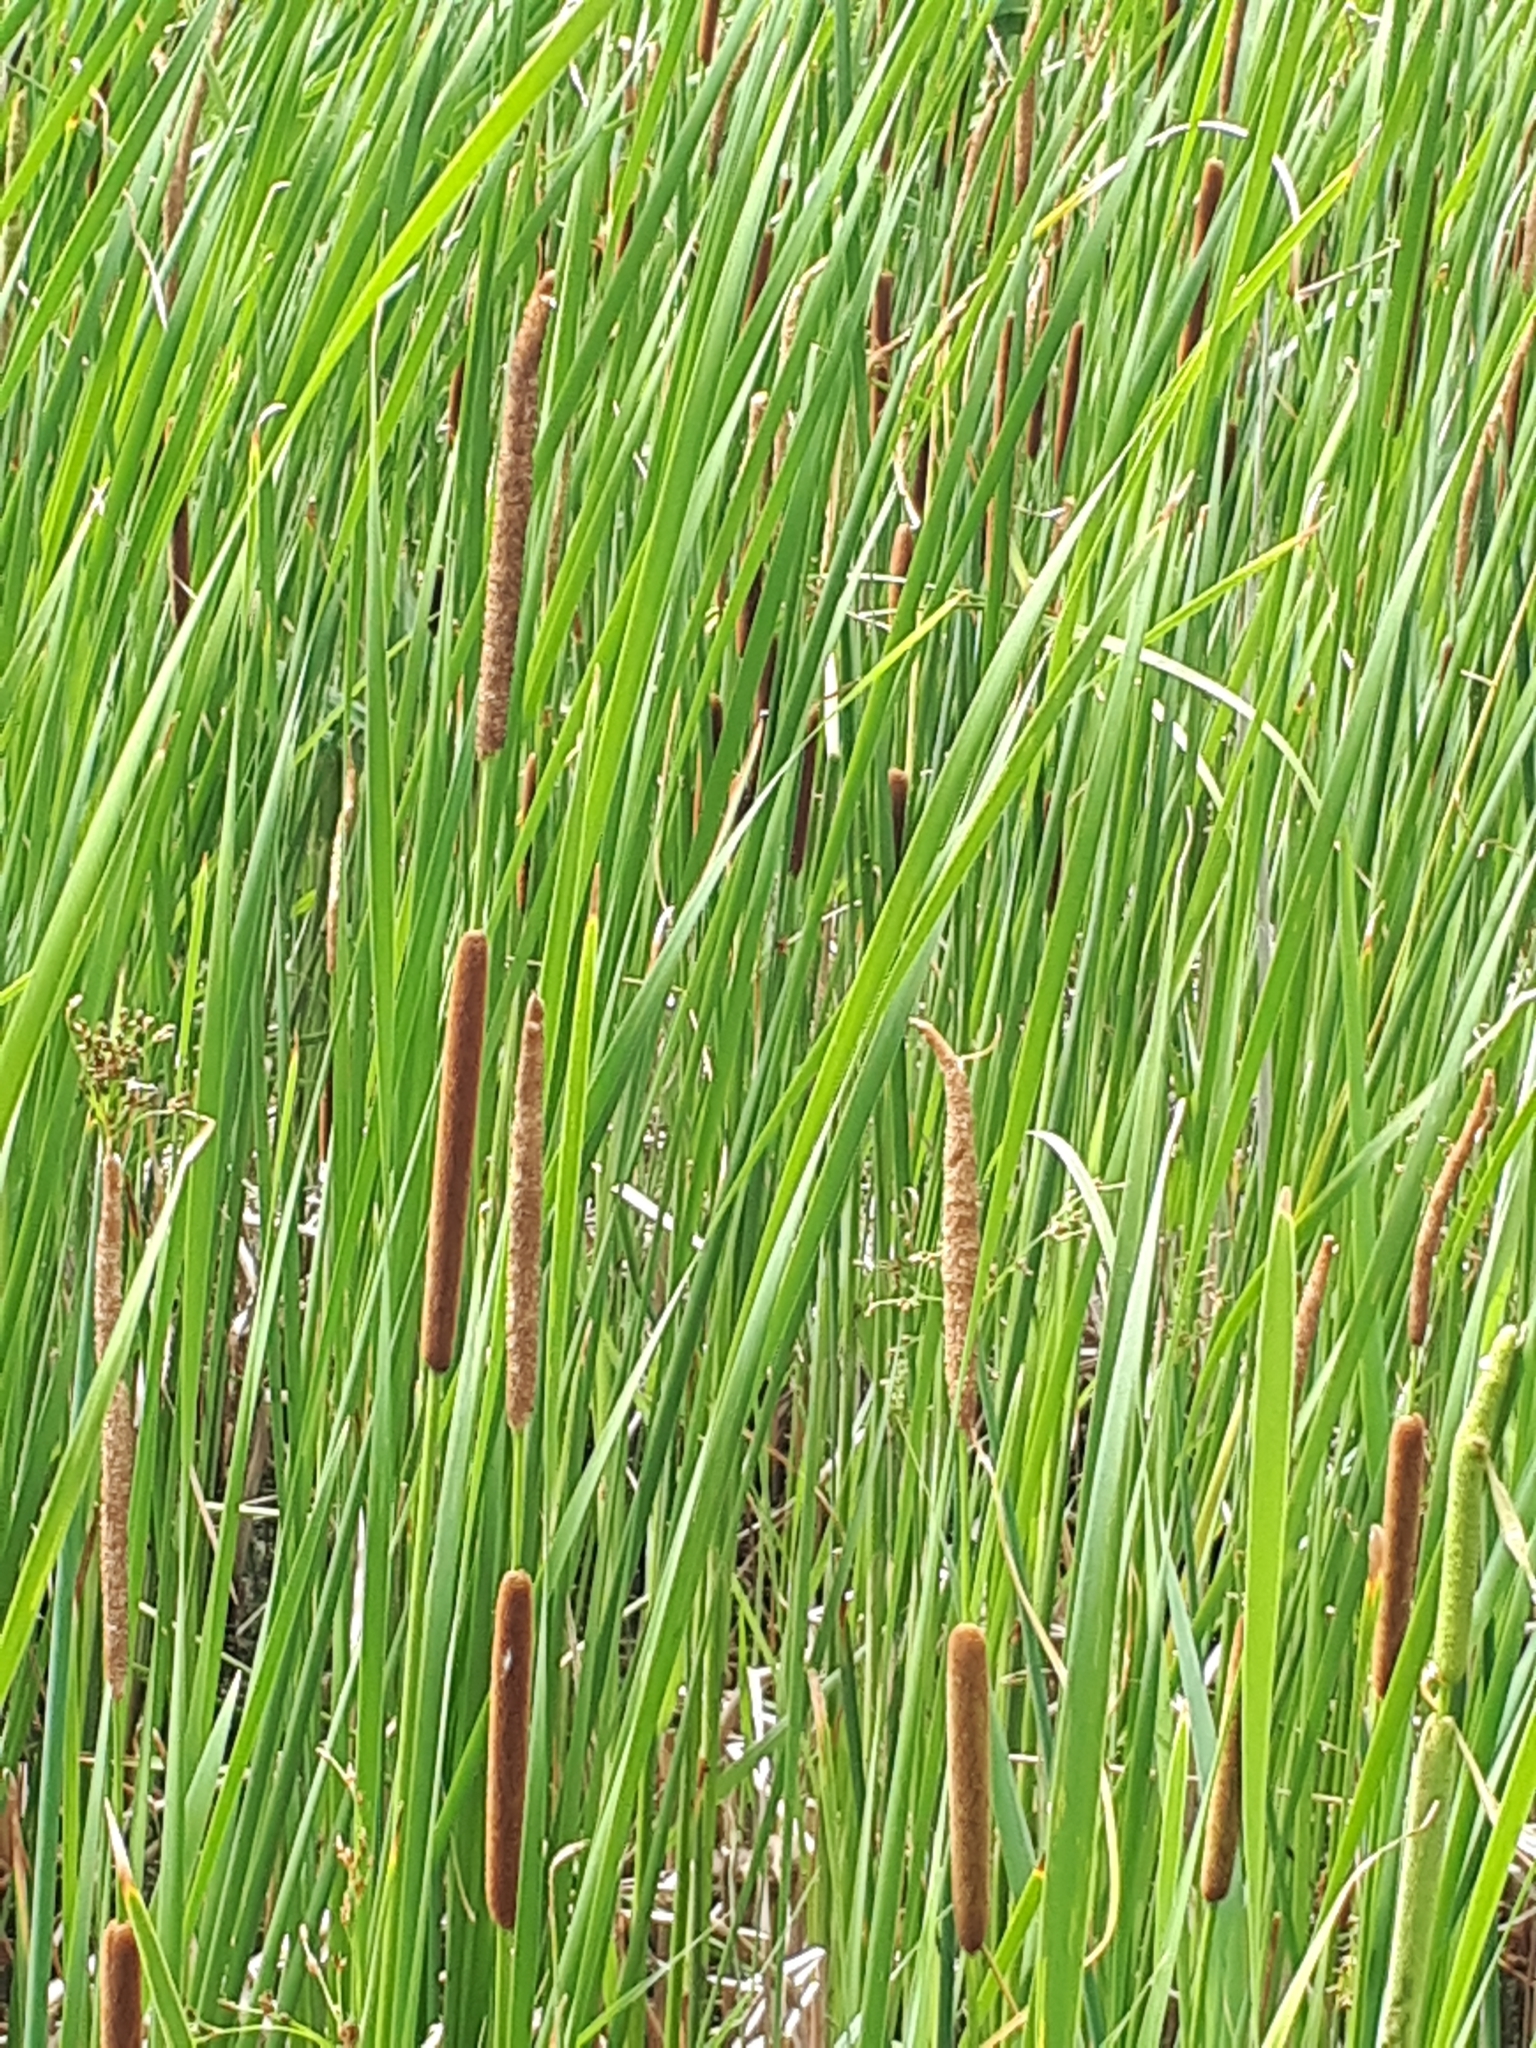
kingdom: Plantae
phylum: Tracheophyta
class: Liliopsida
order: Poales
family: Typhaceae
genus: Typha
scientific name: Typha angustifolia
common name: Lesser bulrush
